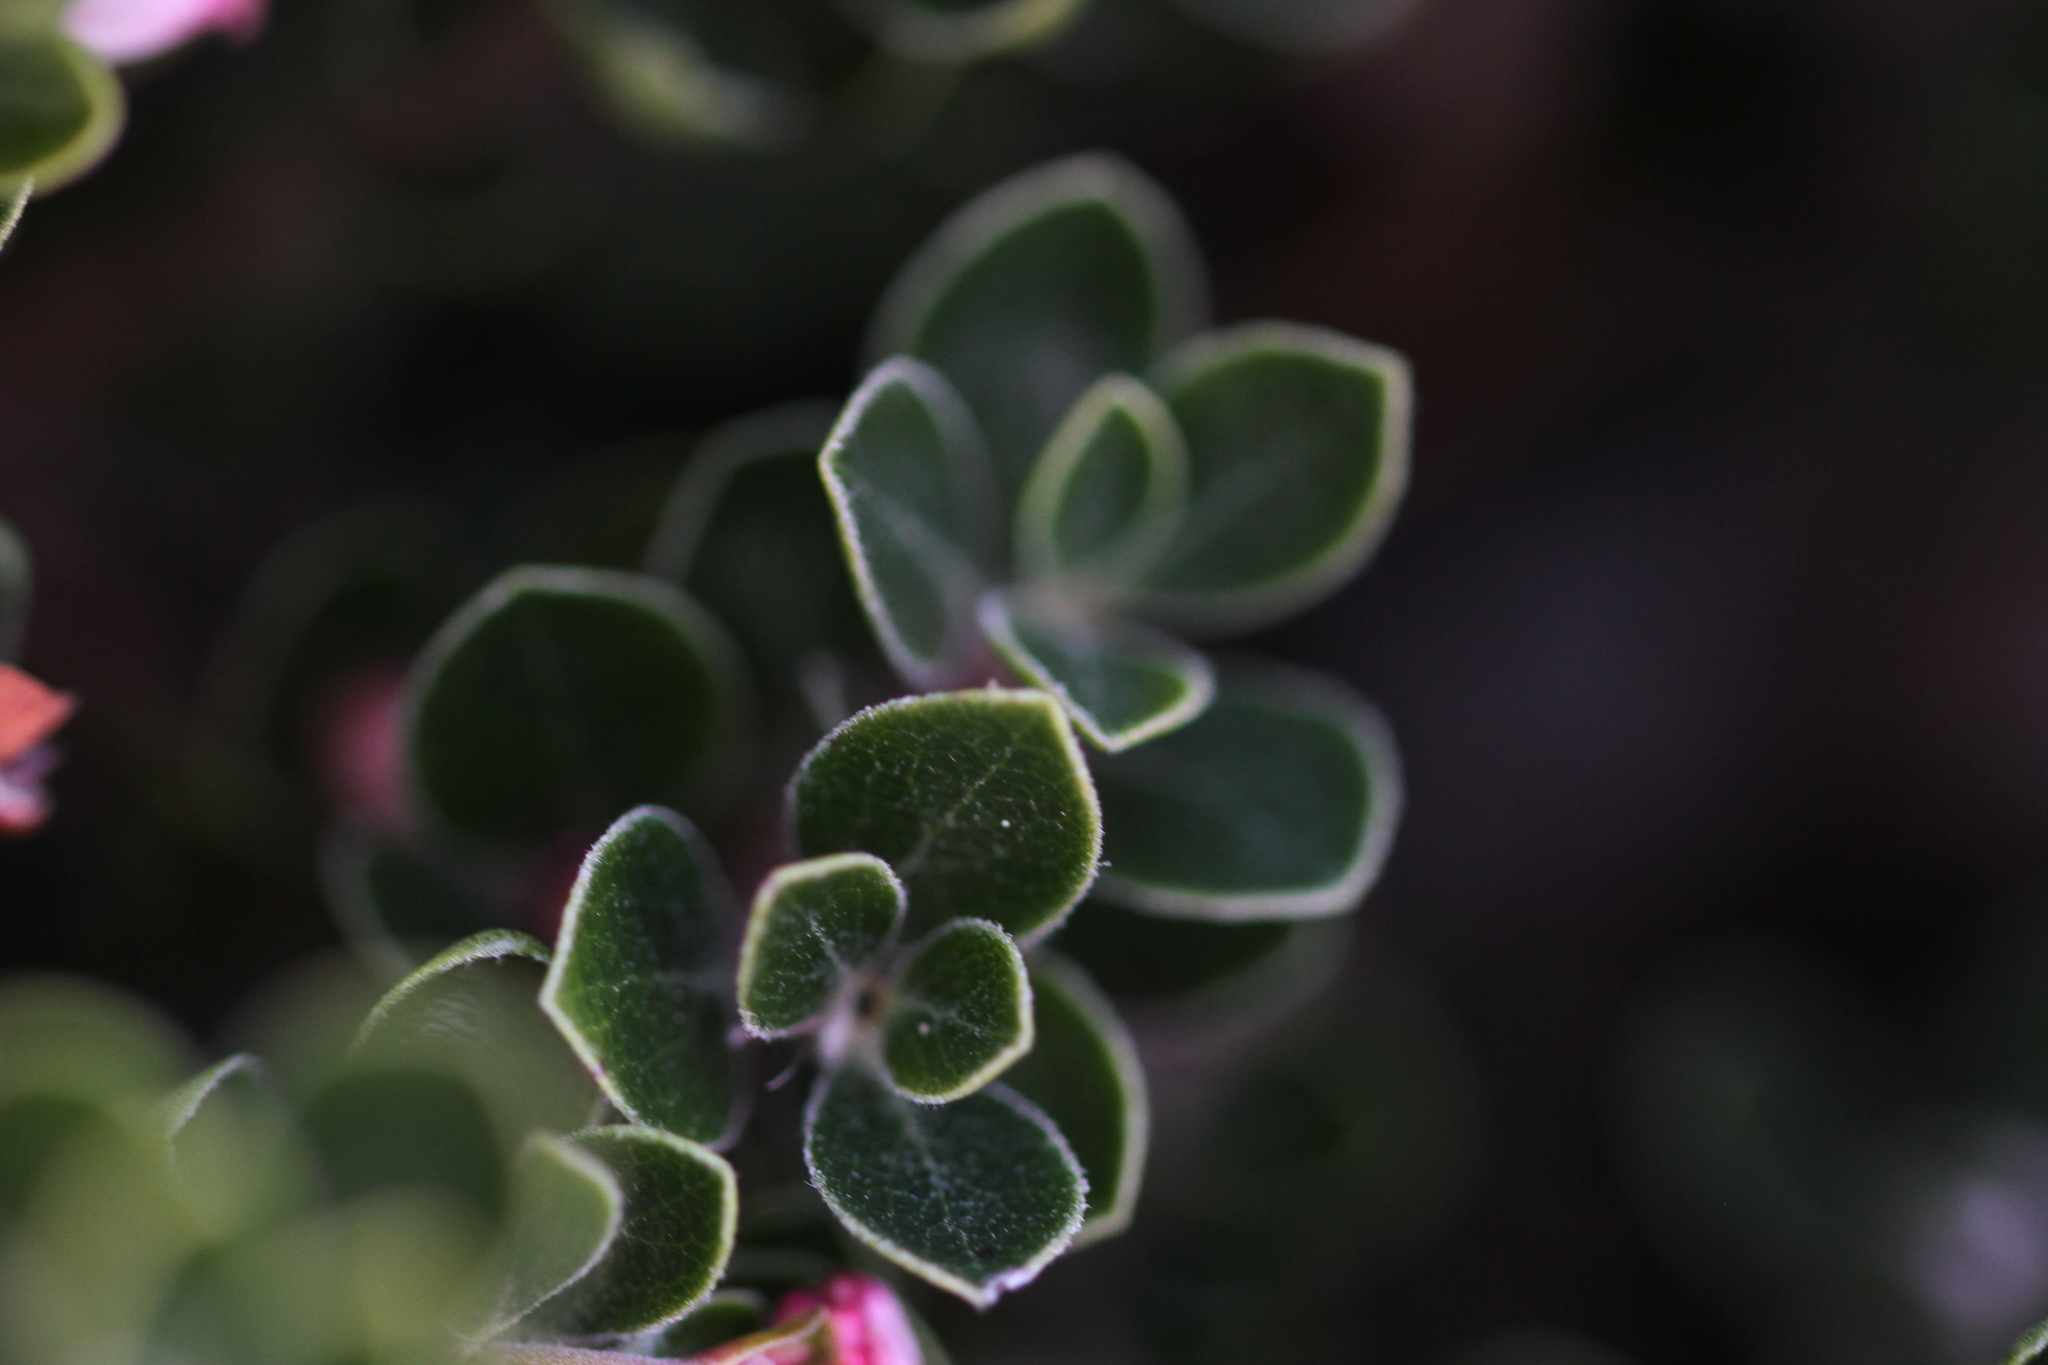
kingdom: Plantae
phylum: Tracheophyta
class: Magnoliopsida
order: Ericales
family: Ericaceae
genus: Arctostaphylos
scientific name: Arctostaphylos uva-ursi
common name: Bearberry
